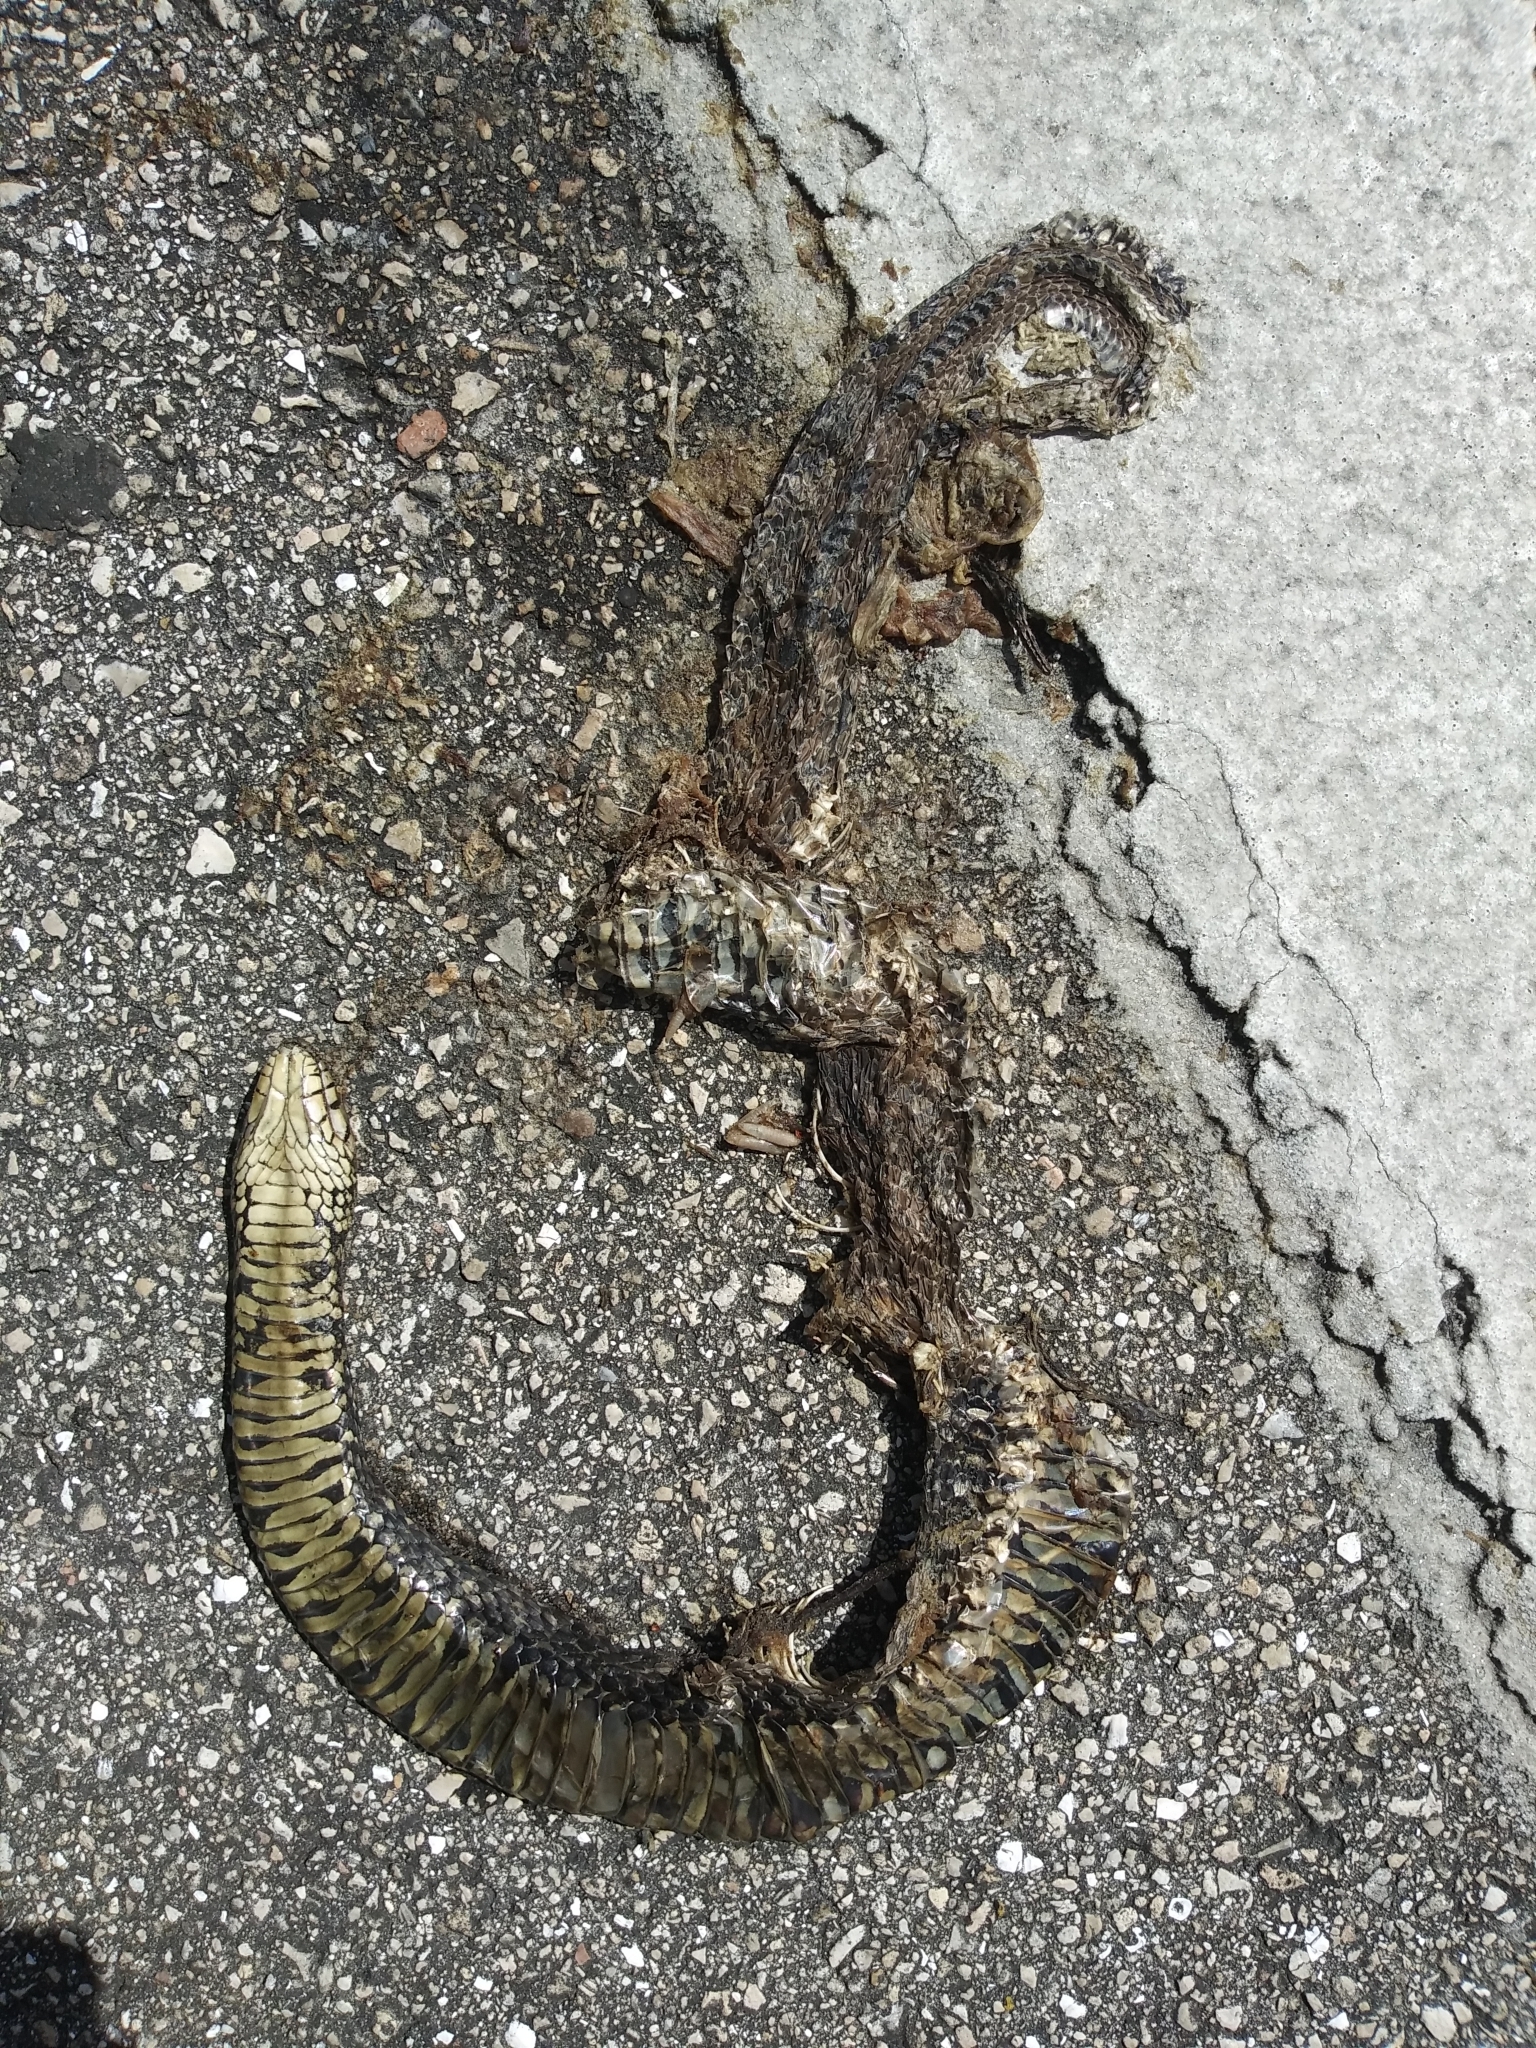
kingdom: Animalia
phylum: Chordata
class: Squamata
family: Colubridae
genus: Nerodia
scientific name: Nerodia fasciata
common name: Southern water snake
